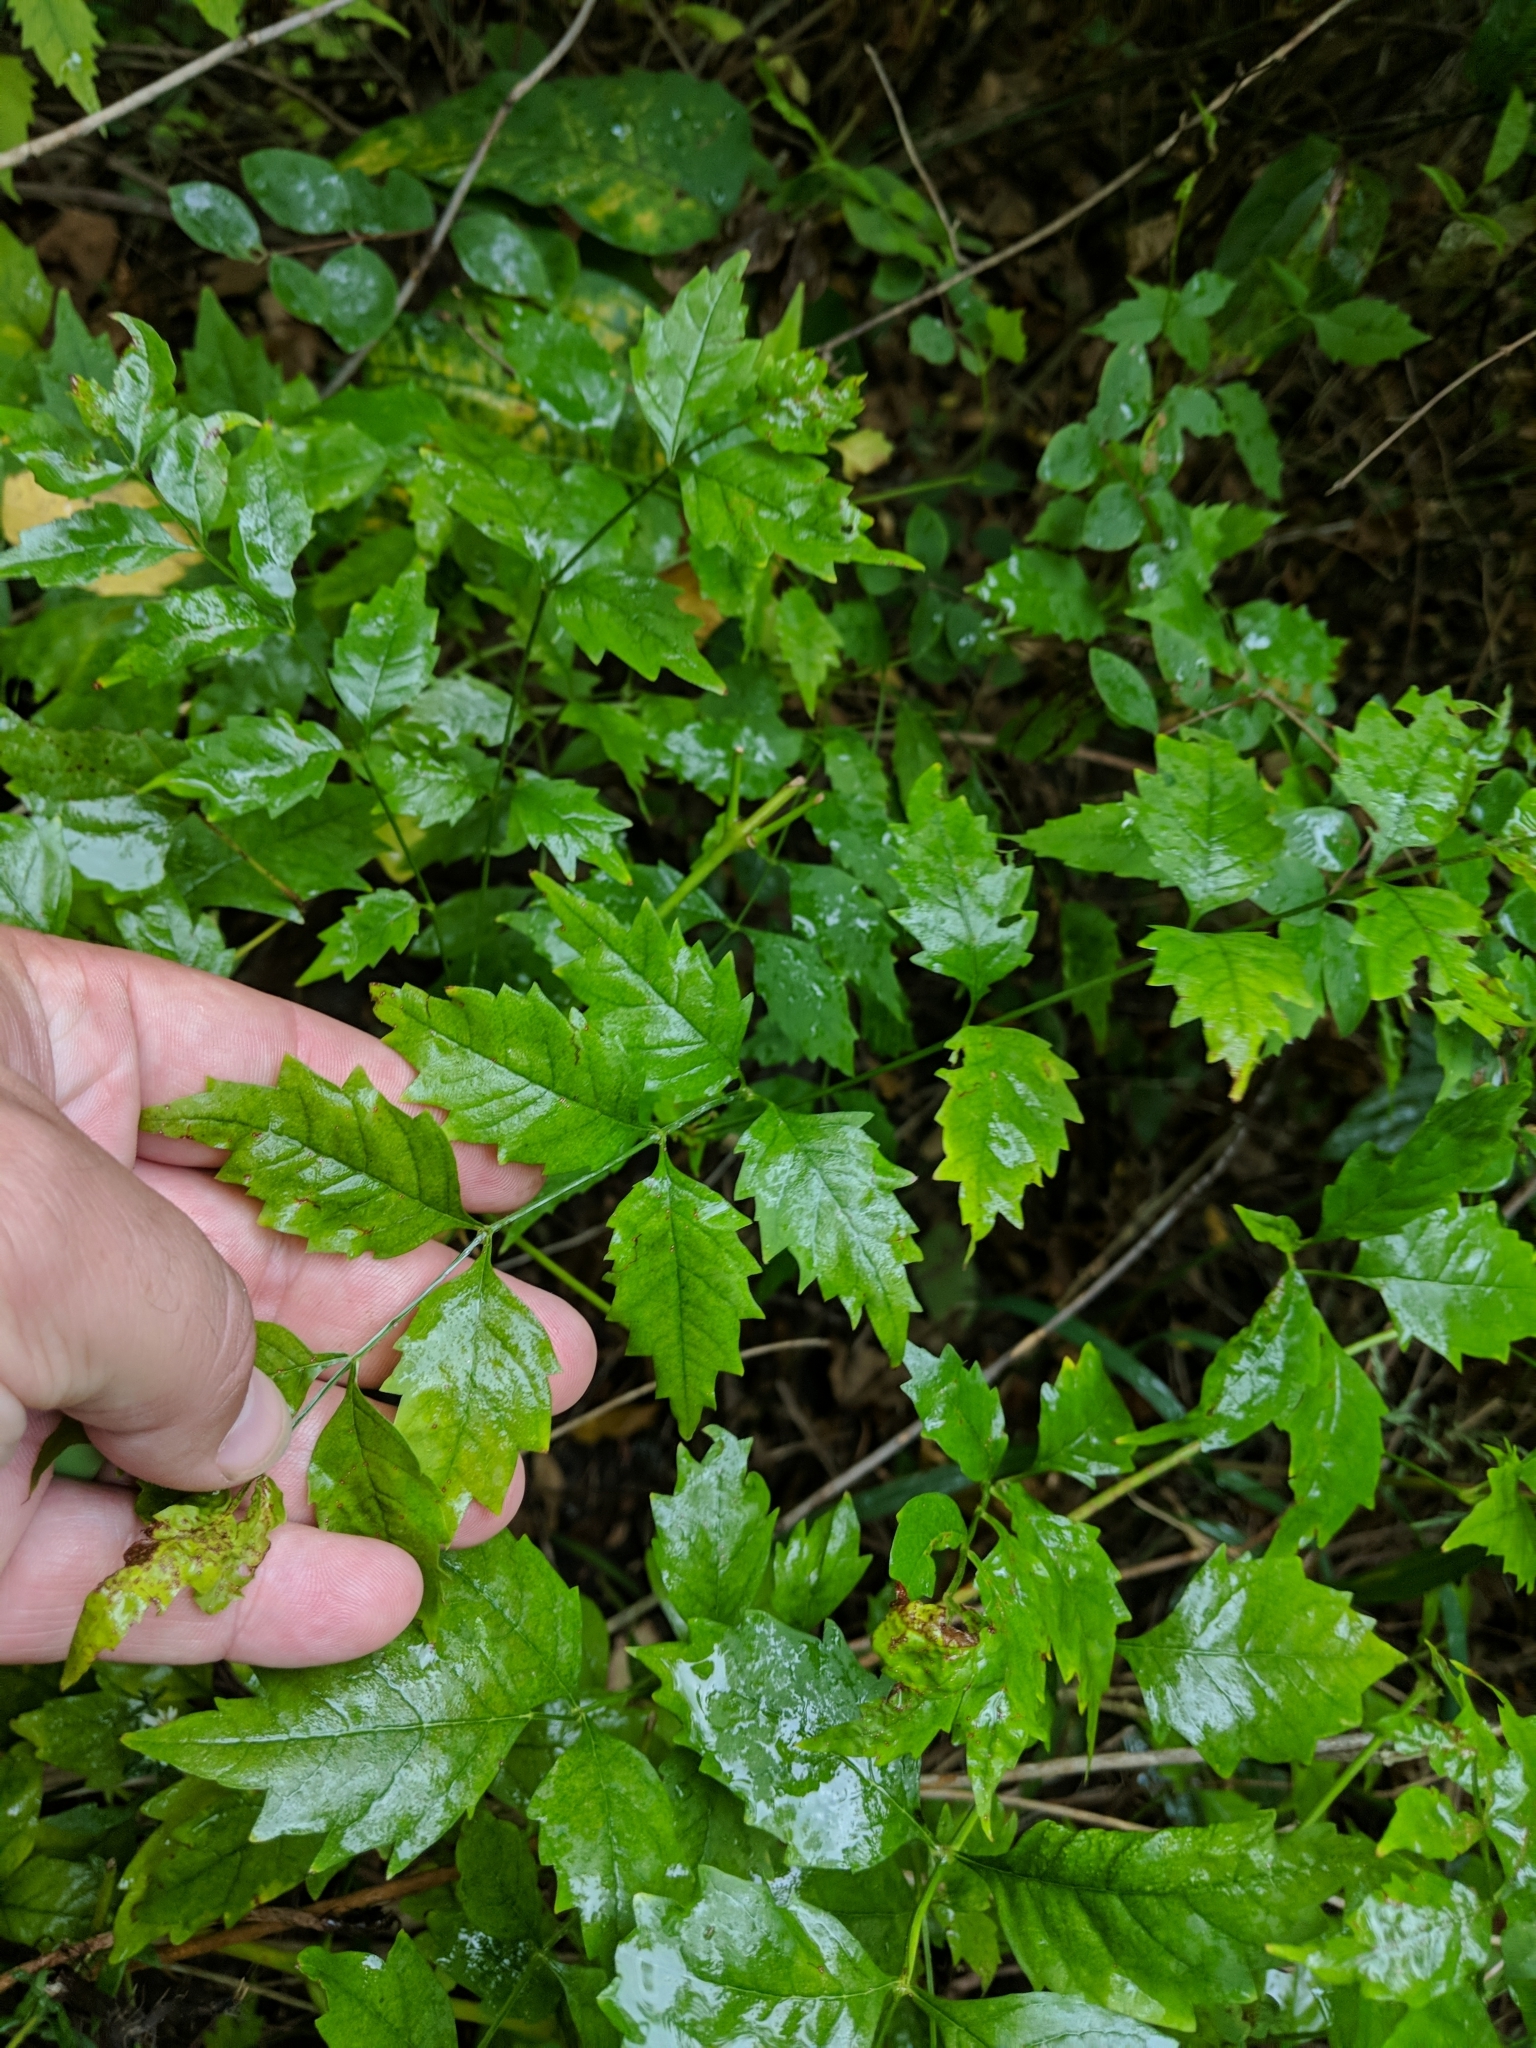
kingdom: Plantae
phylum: Tracheophyta
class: Magnoliopsida
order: Lamiales
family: Bignoniaceae
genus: Campsis
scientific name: Campsis radicans
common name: Trumpet-creeper
